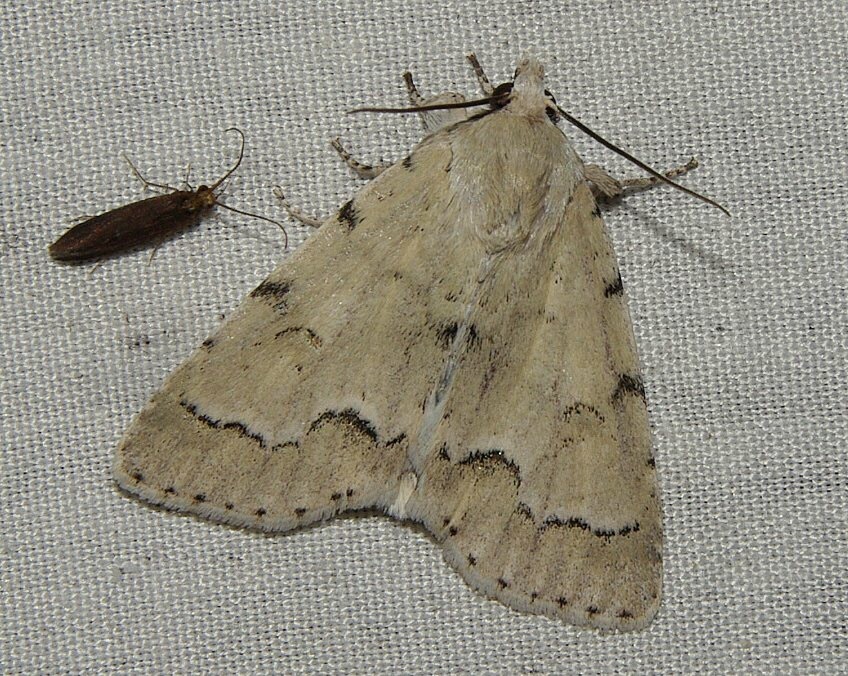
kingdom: Animalia
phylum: Arthropoda
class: Insecta
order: Lepidoptera
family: Noctuidae
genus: Acronicta
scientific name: Acronicta innotata
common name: Unmarked dagger
